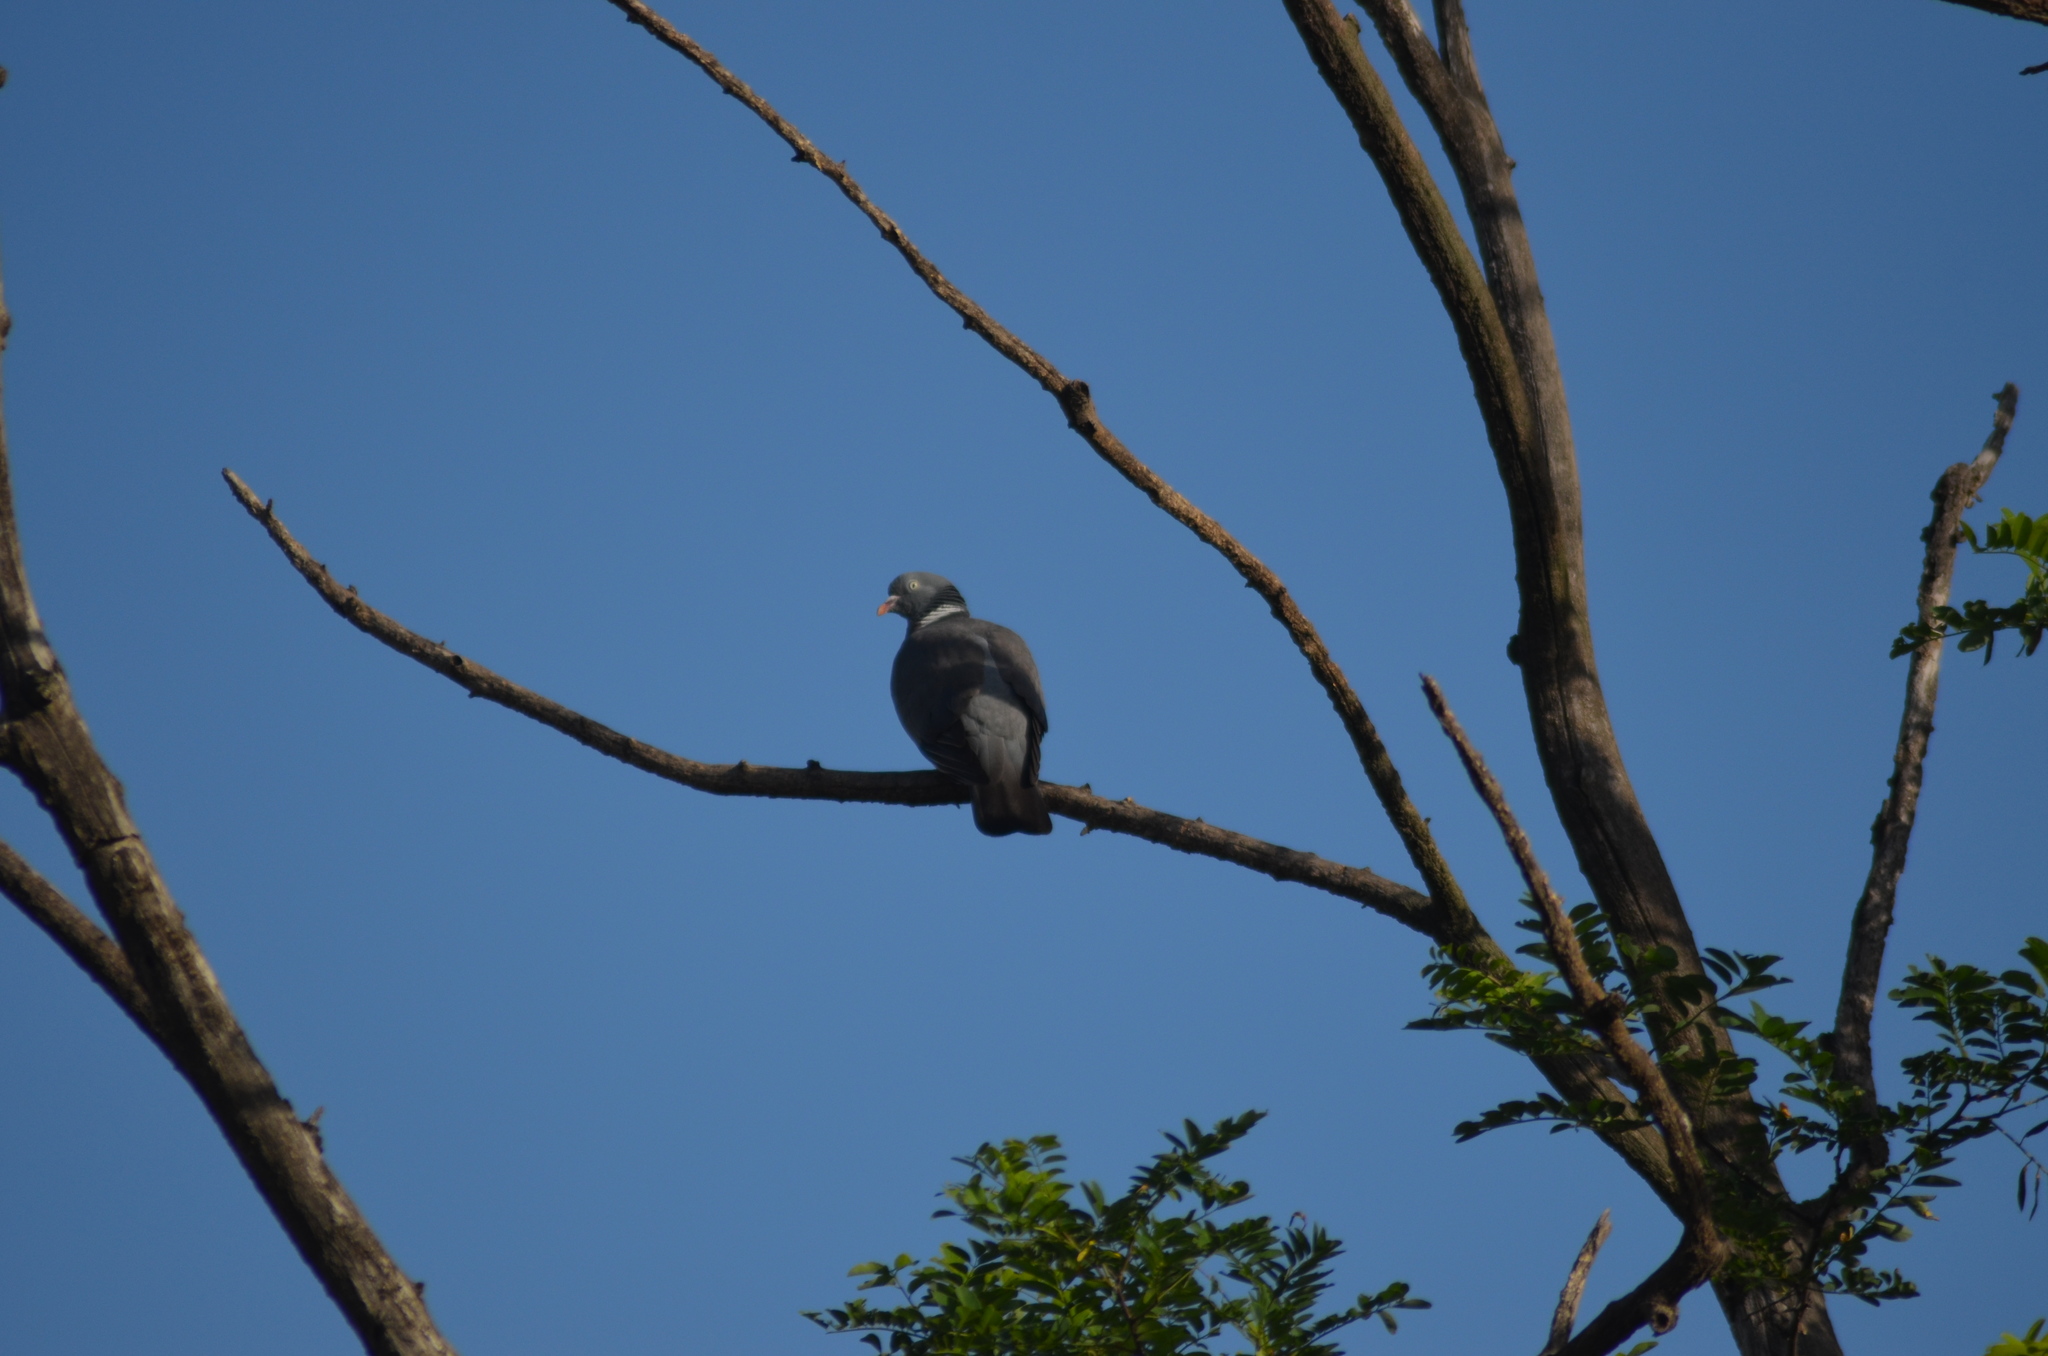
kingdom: Animalia
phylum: Chordata
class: Aves
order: Columbiformes
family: Columbidae
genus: Columba
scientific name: Columba palumbus
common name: Common wood pigeon
